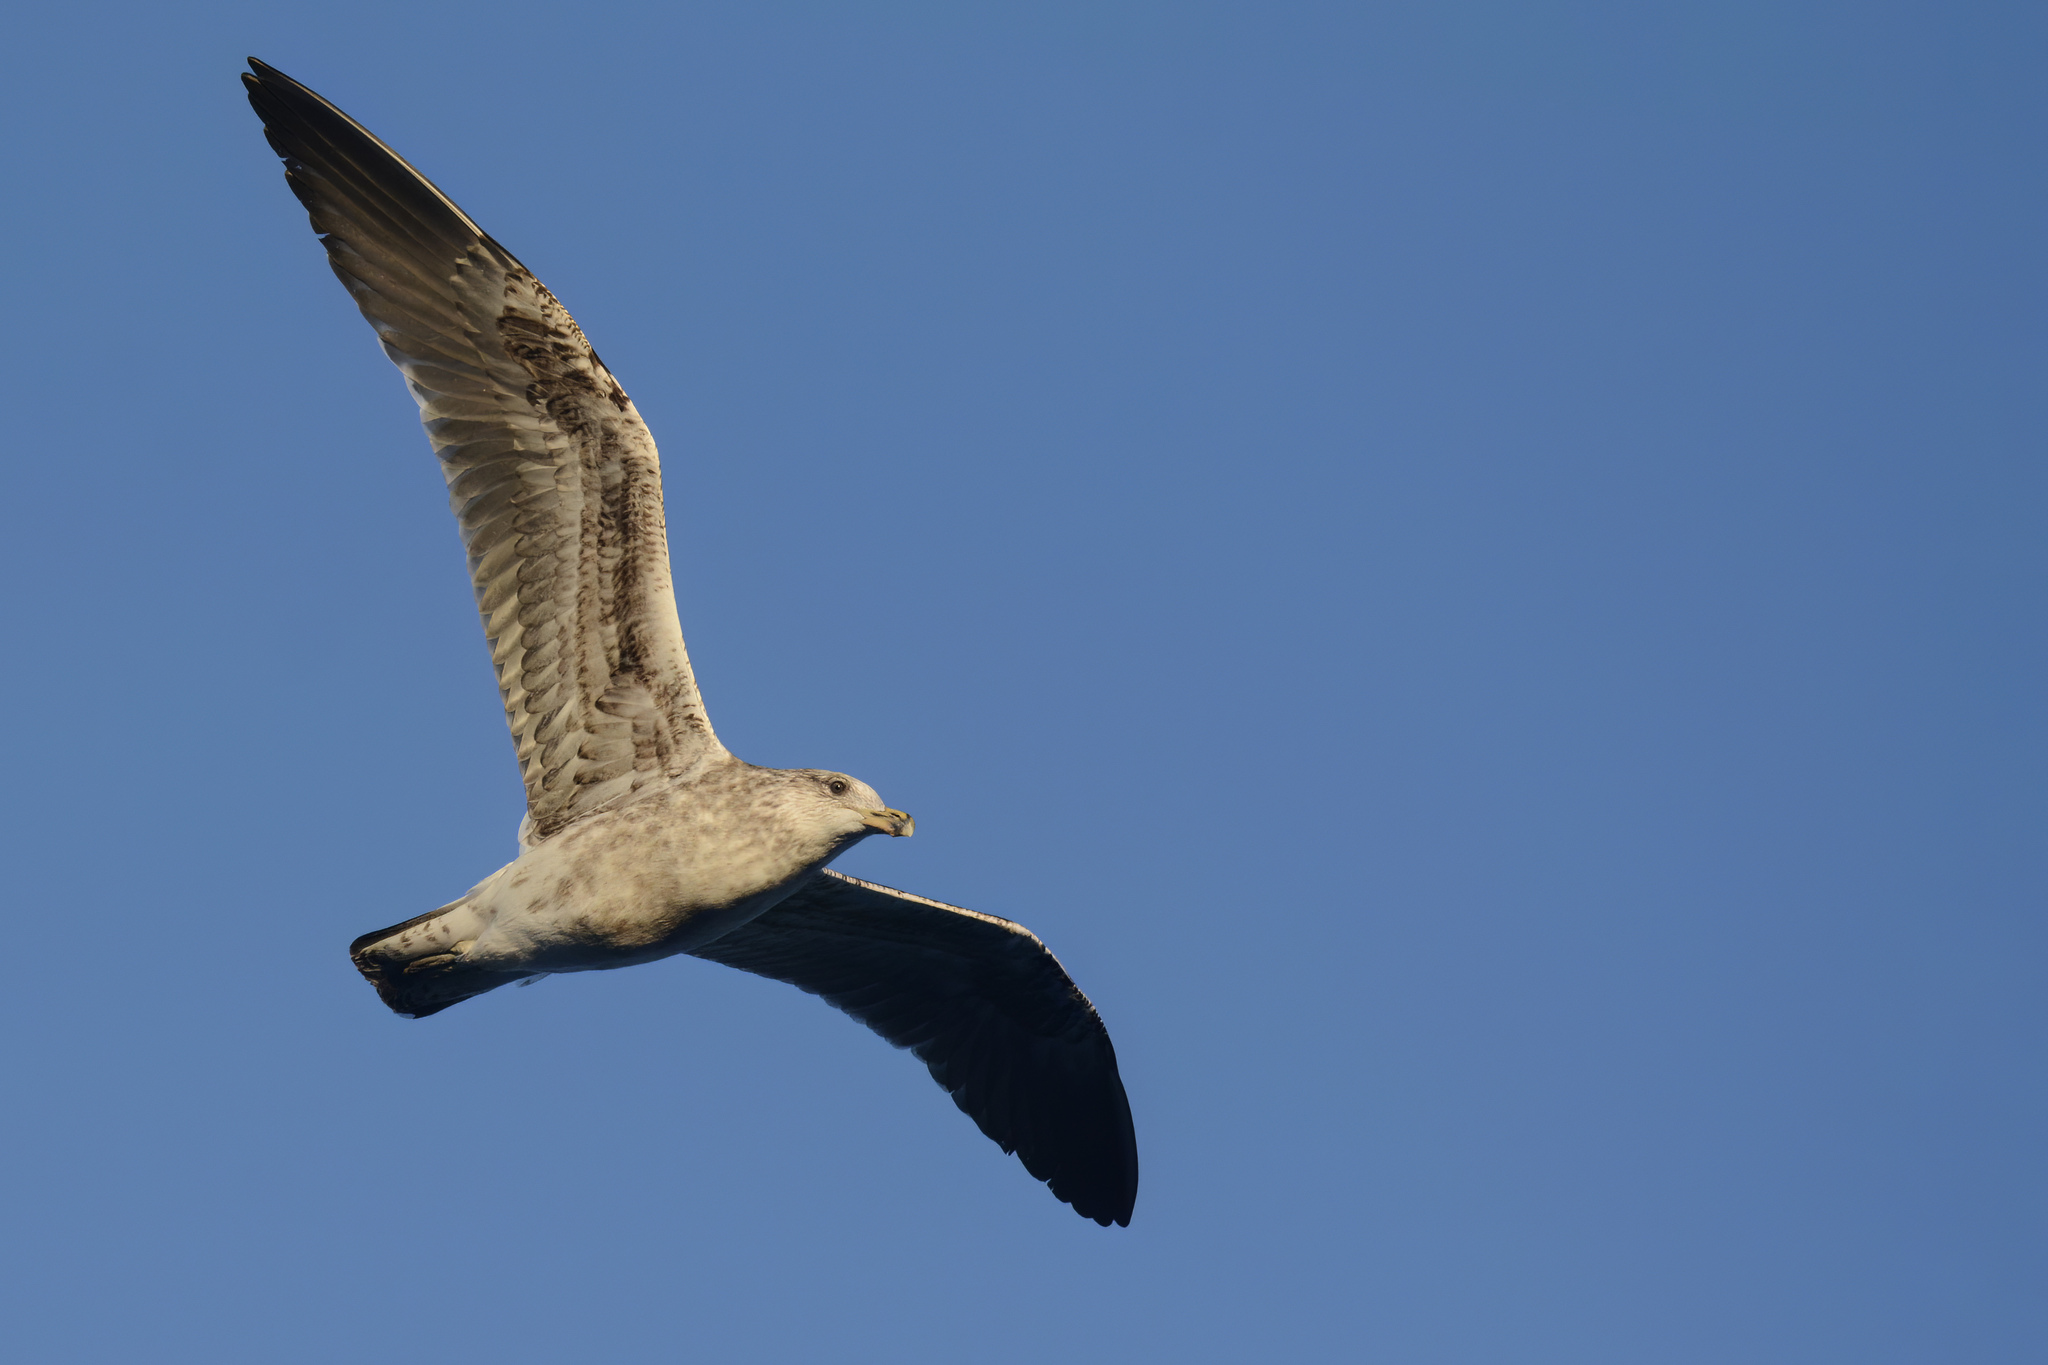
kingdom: Animalia
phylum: Chordata
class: Aves
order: Charadriiformes
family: Laridae
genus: Larus
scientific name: Larus dominicanus
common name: Kelp gull
